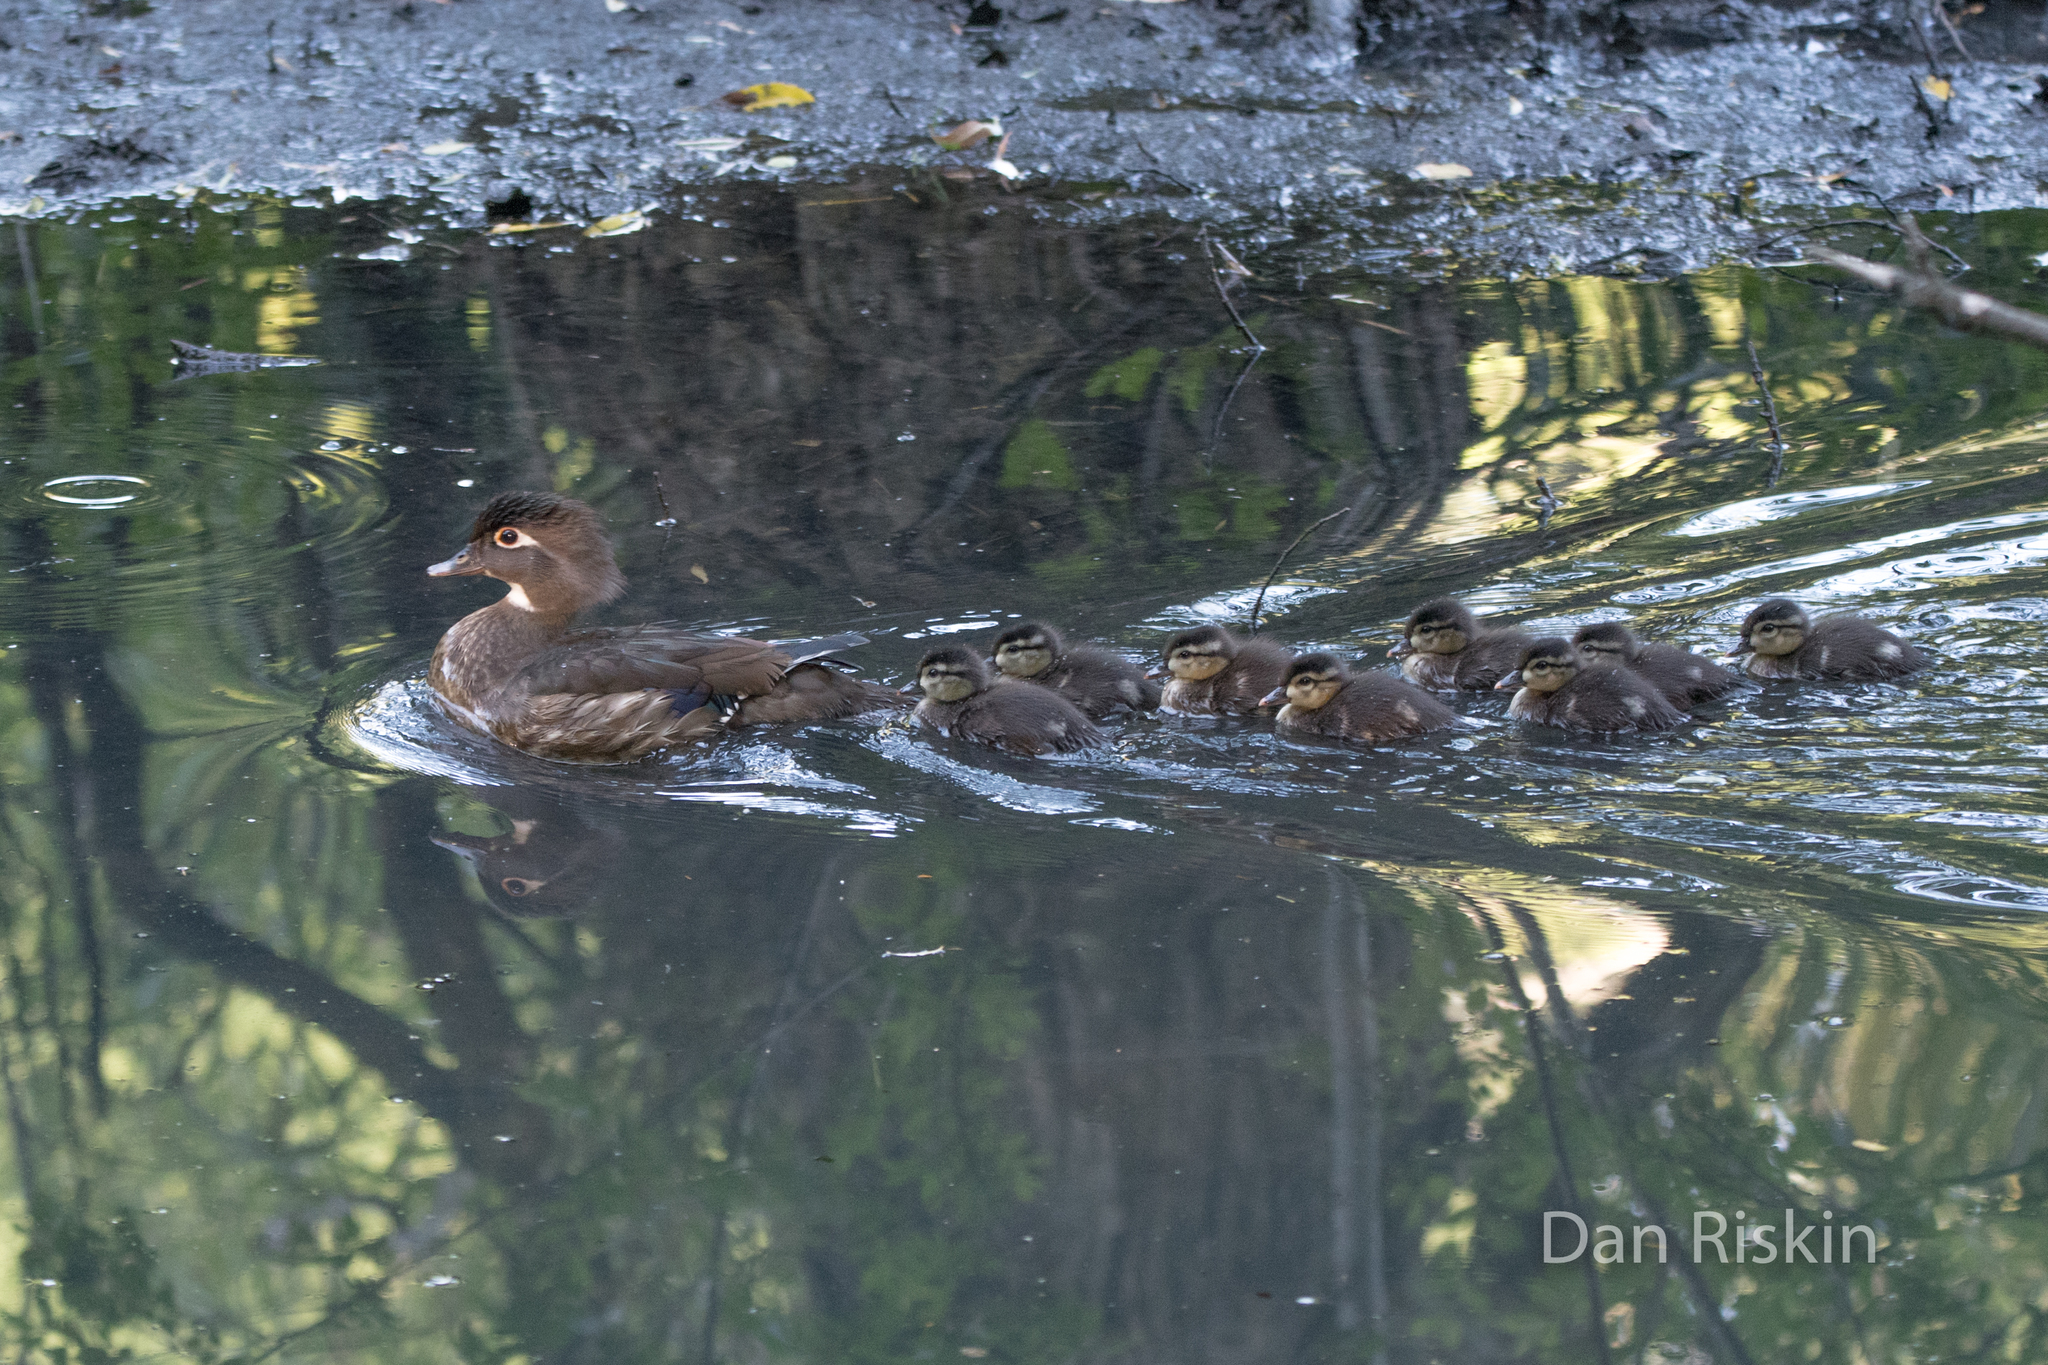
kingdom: Animalia
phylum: Chordata
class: Aves
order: Anseriformes
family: Anatidae
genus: Aix
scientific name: Aix sponsa
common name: Wood duck
